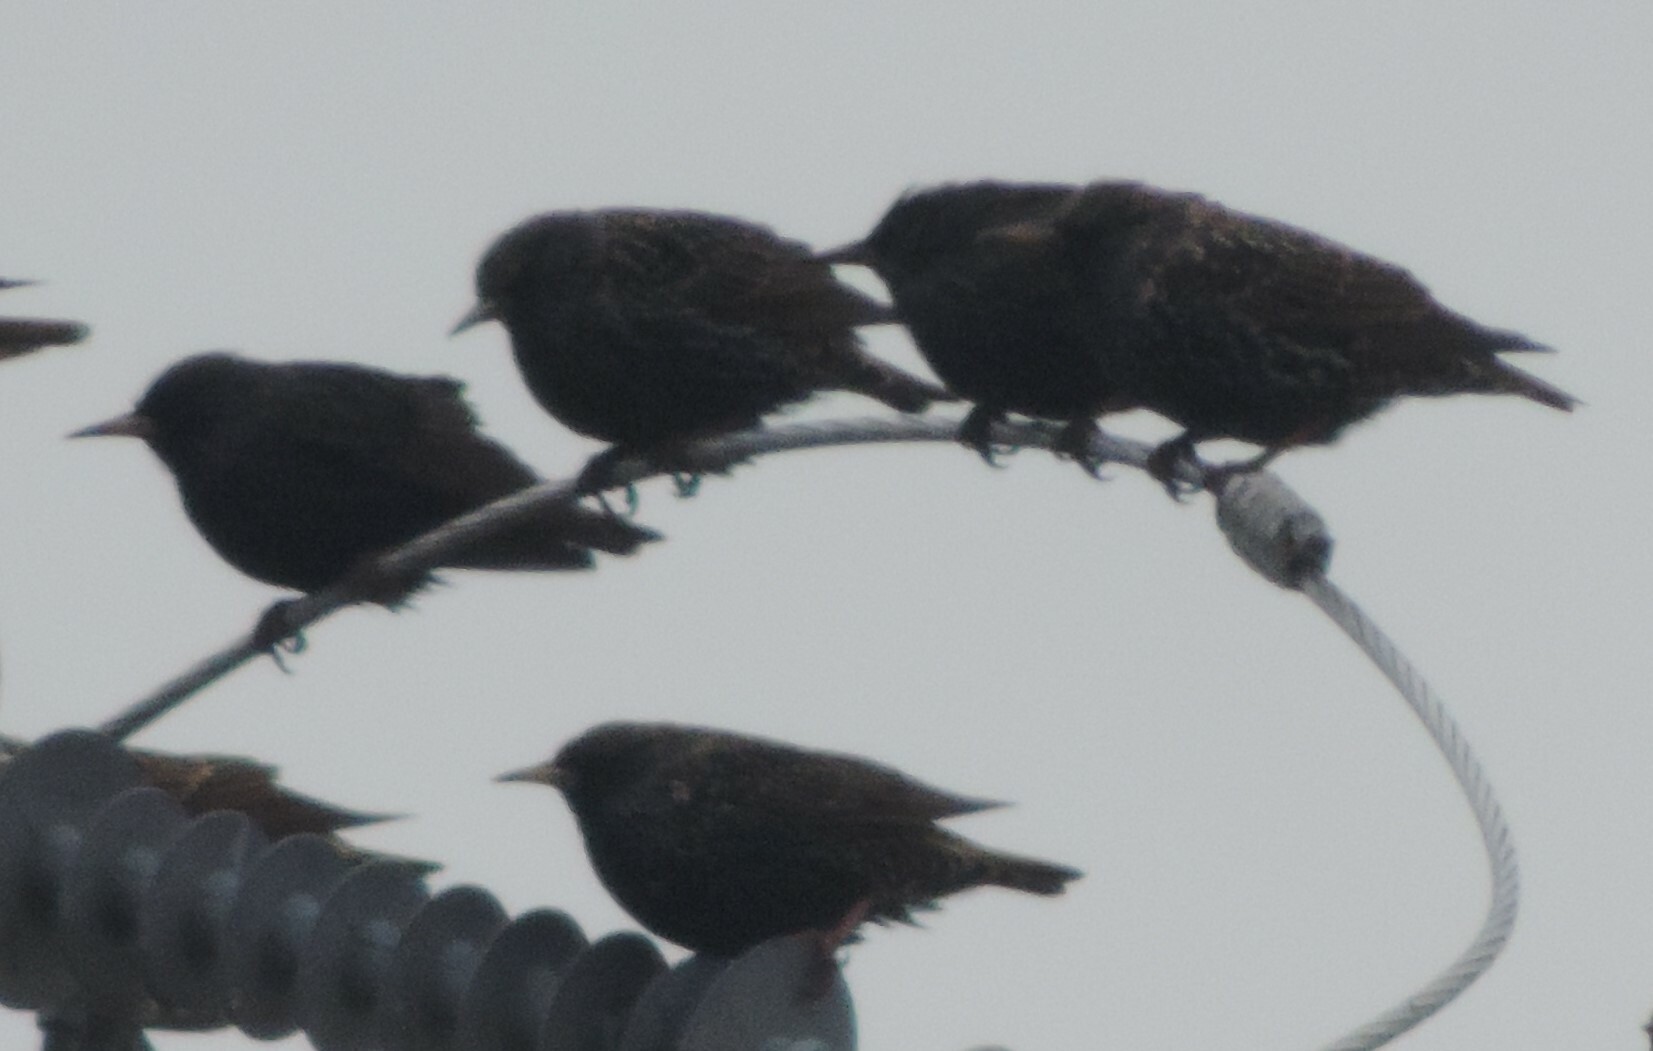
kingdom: Animalia
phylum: Chordata
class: Aves
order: Passeriformes
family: Sturnidae
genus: Sturnus
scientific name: Sturnus vulgaris
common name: Common starling
